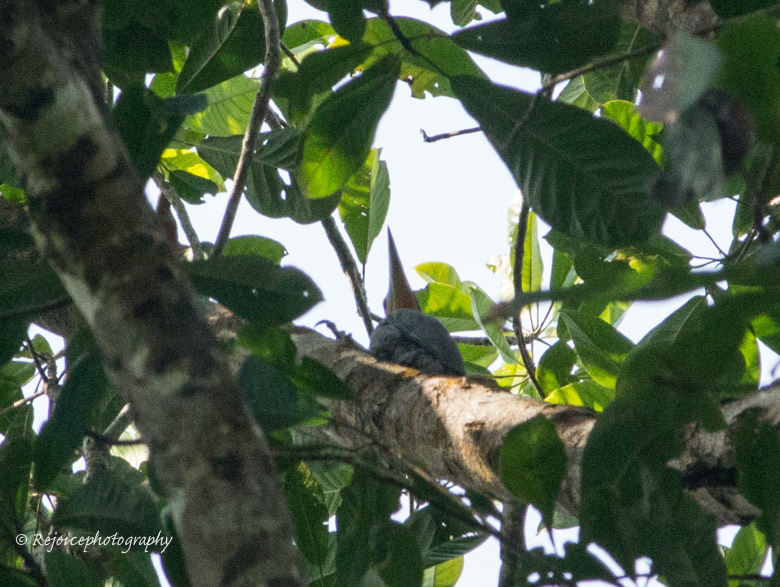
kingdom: Animalia
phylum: Chordata
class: Aves
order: Piciformes
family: Picidae
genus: Mulleripicus
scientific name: Mulleripicus pulverulentus
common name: Great slaty woodpecker
